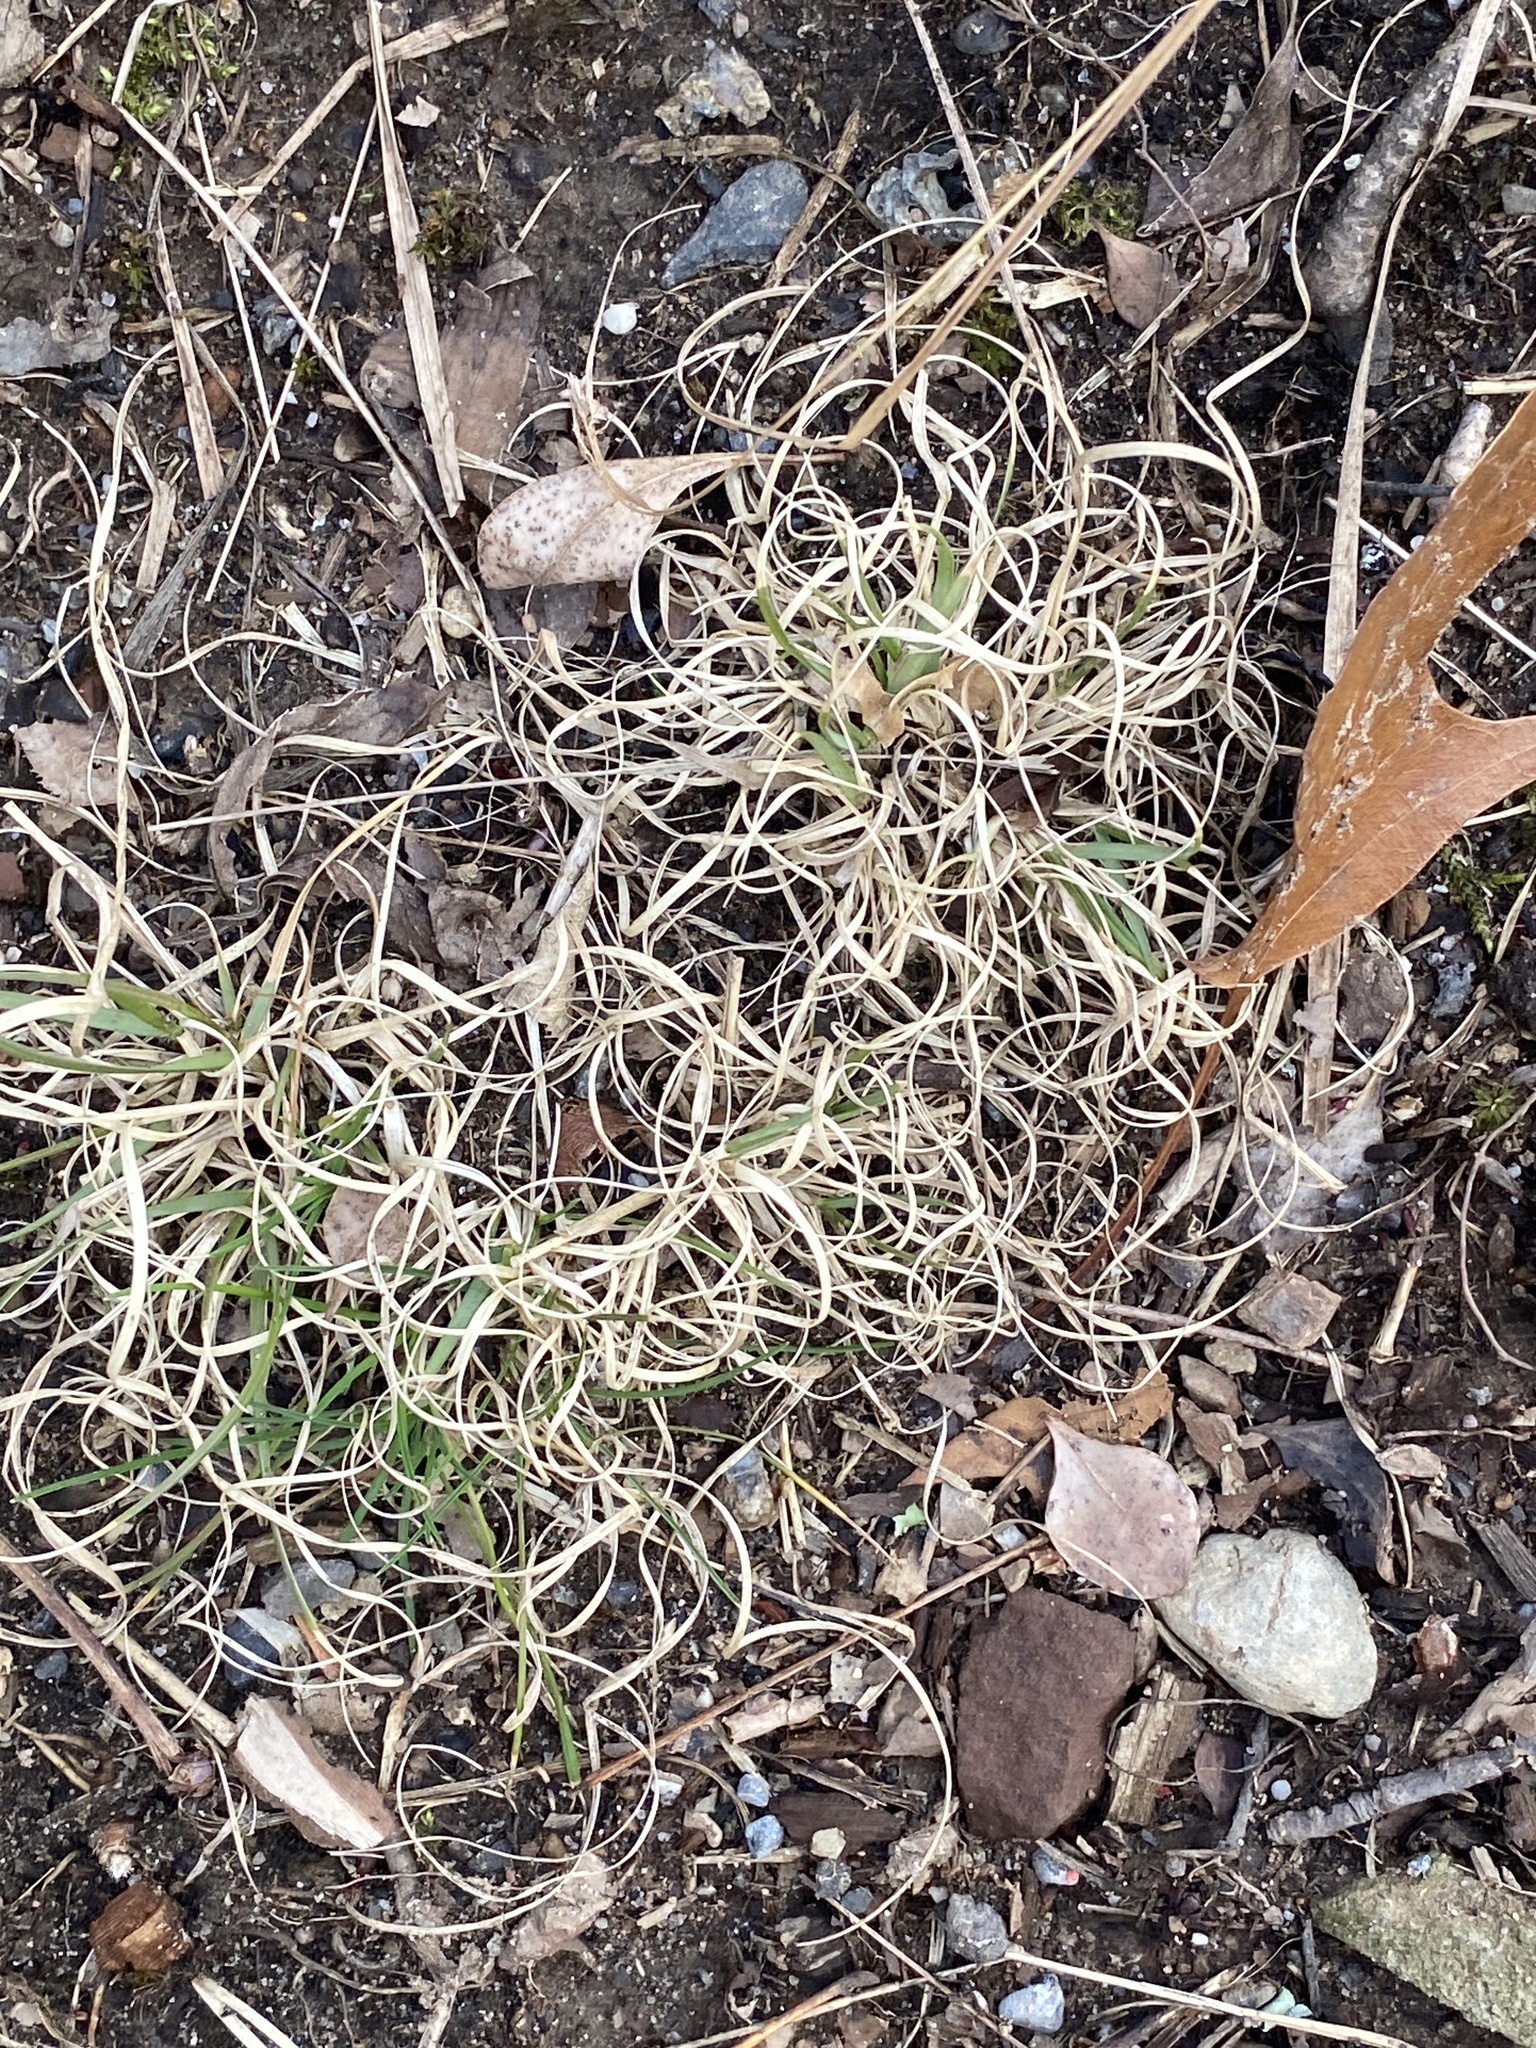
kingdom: Plantae
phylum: Tracheophyta
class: Liliopsida
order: Poales
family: Poaceae
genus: Danthonia
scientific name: Danthonia spicata
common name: Common wild oatgrass
